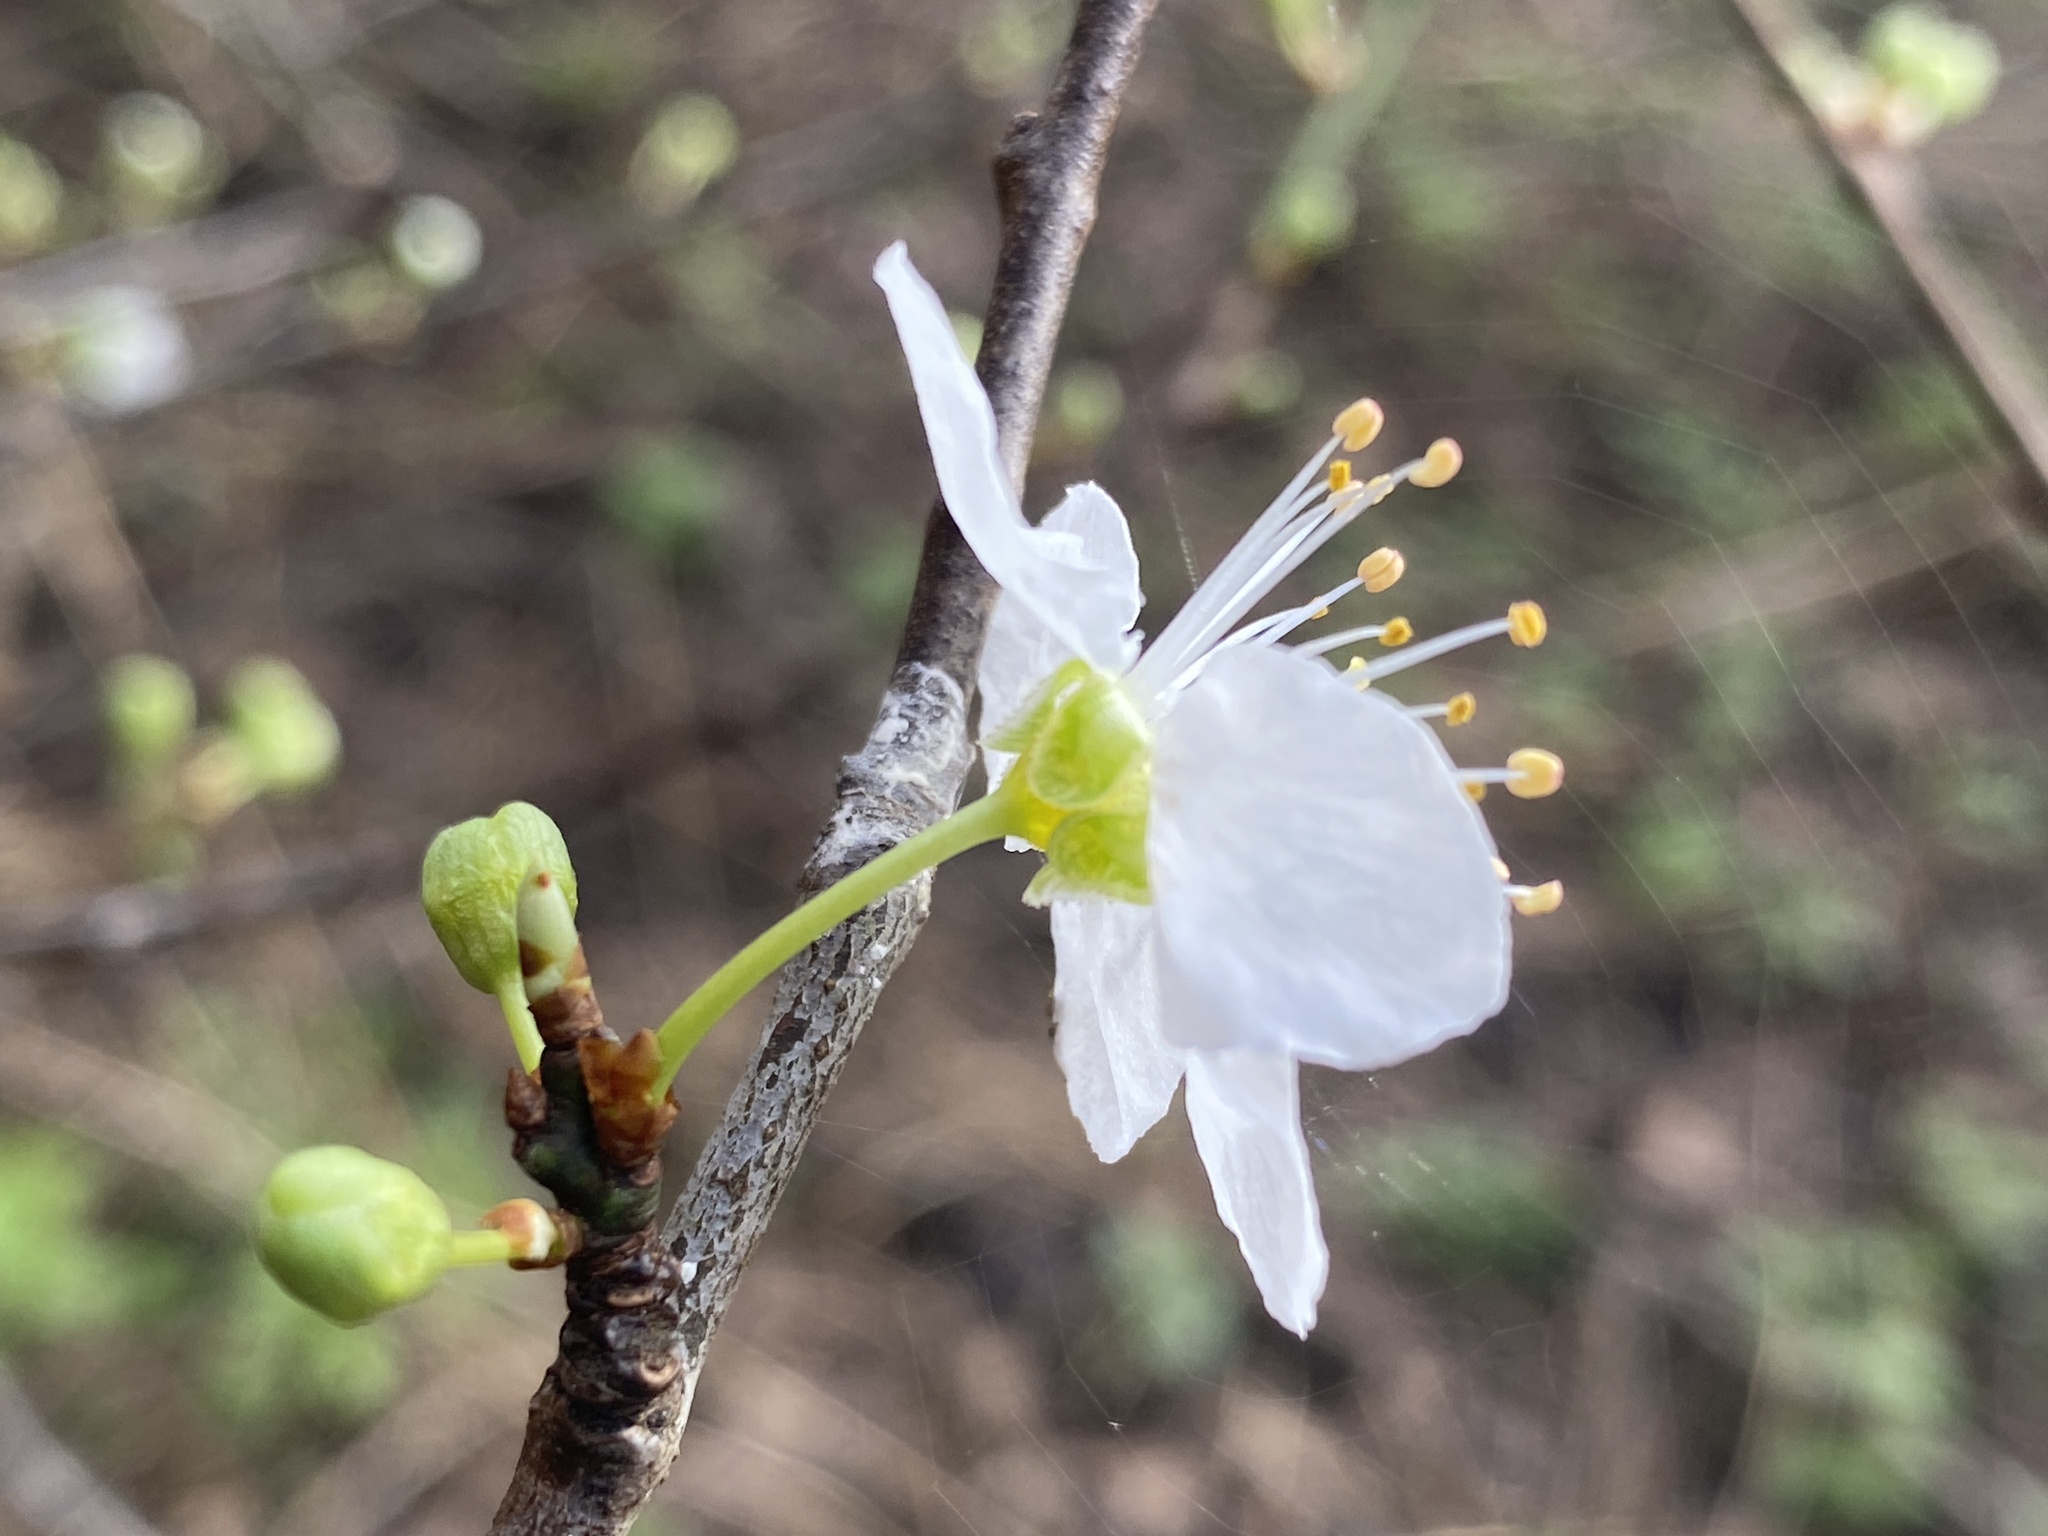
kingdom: Plantae
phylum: Tracheophyta
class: Magnoliopsida
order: Rosales
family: Rosaceae
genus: Prunus
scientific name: Prunus cerasifera
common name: Cherry plum
